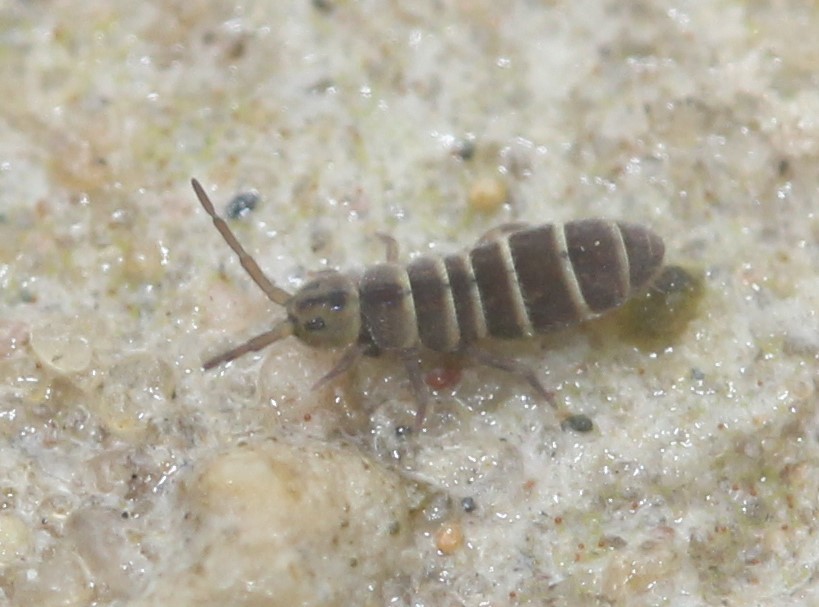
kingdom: Animalia
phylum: Arthropoda
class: Collembola
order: Entomobryomorpha
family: Isotomidae
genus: Isotomurus
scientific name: Isotomurus bimus
